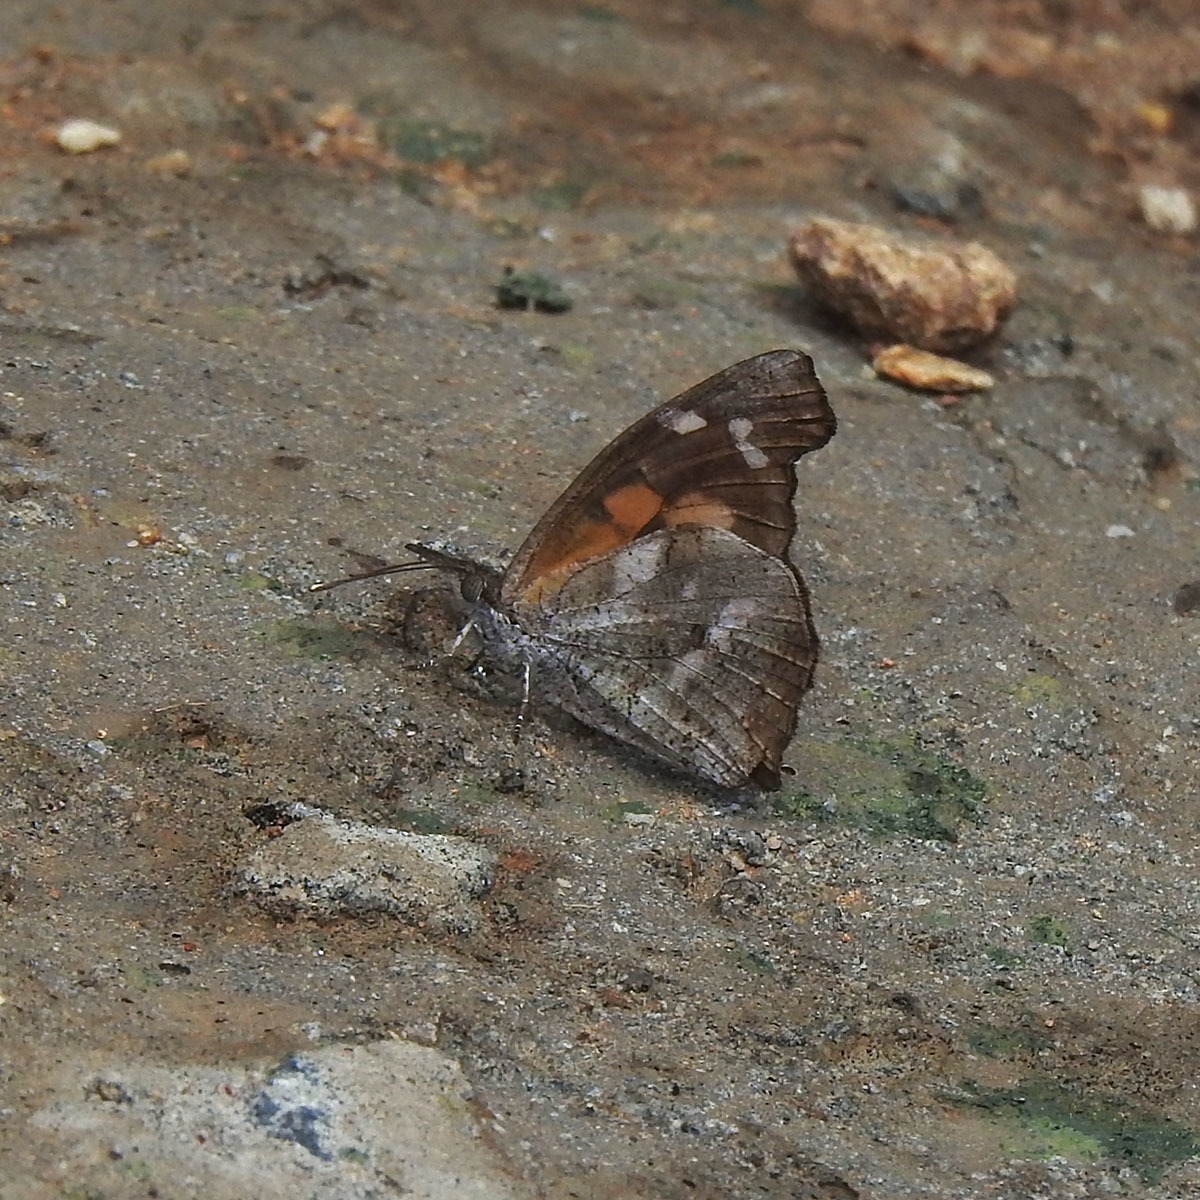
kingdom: Animalia
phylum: Arthropoda
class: Insecta
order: Lepidoptera
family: Nymphalidae
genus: Libythea
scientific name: Libythea laius
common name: African snout
